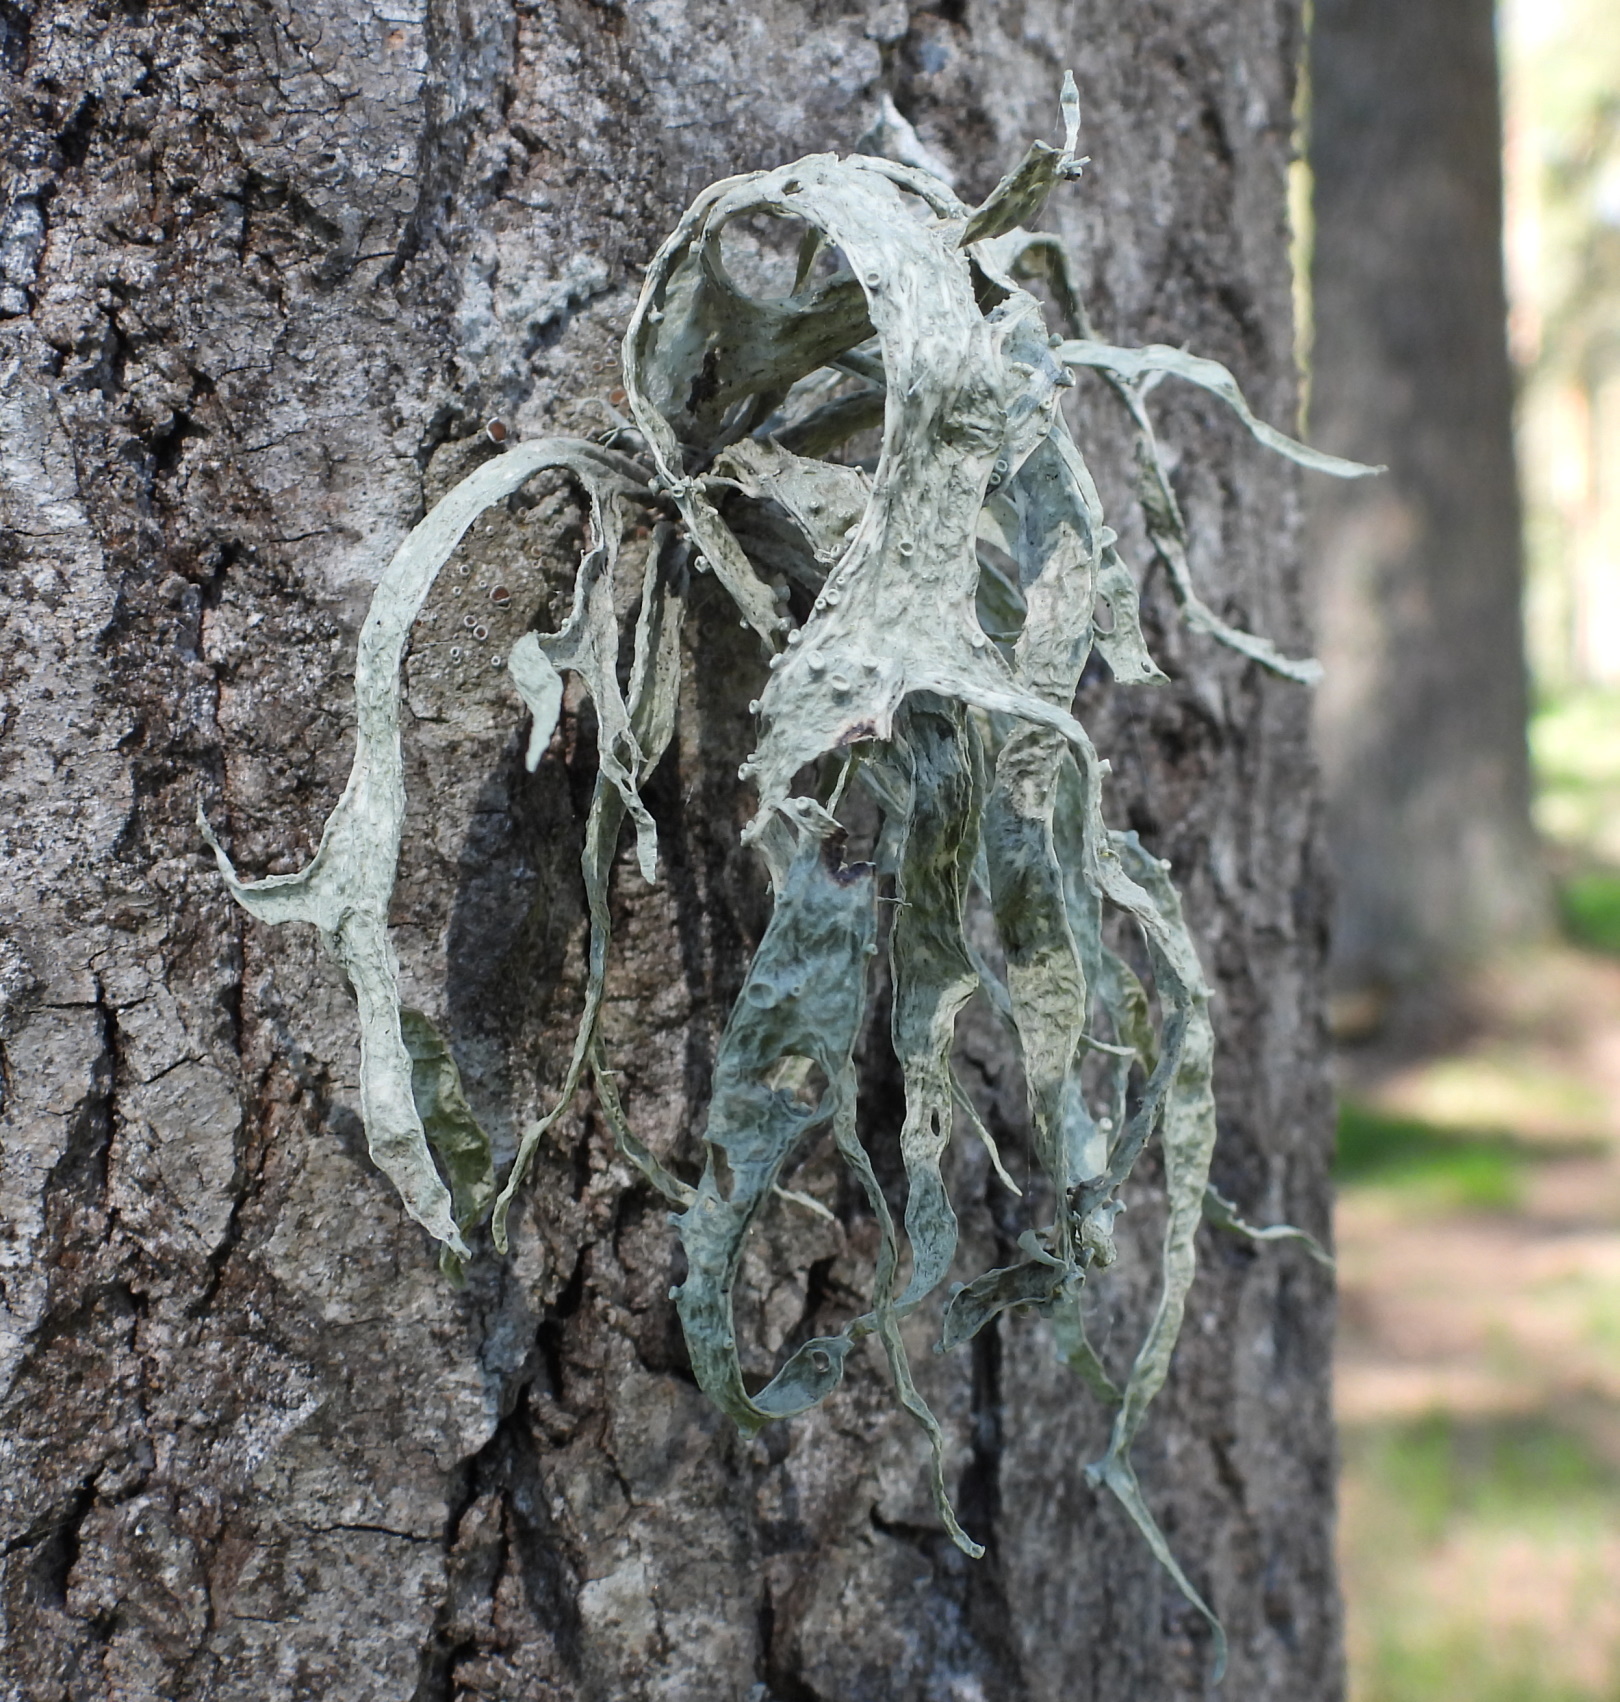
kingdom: Fungi
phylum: Ascomycota
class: Lecanoromycetes
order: Lecanorales
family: Ramalinaceae
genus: Ramalina
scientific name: Ramalina fraxinea
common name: Cartilage lichen
